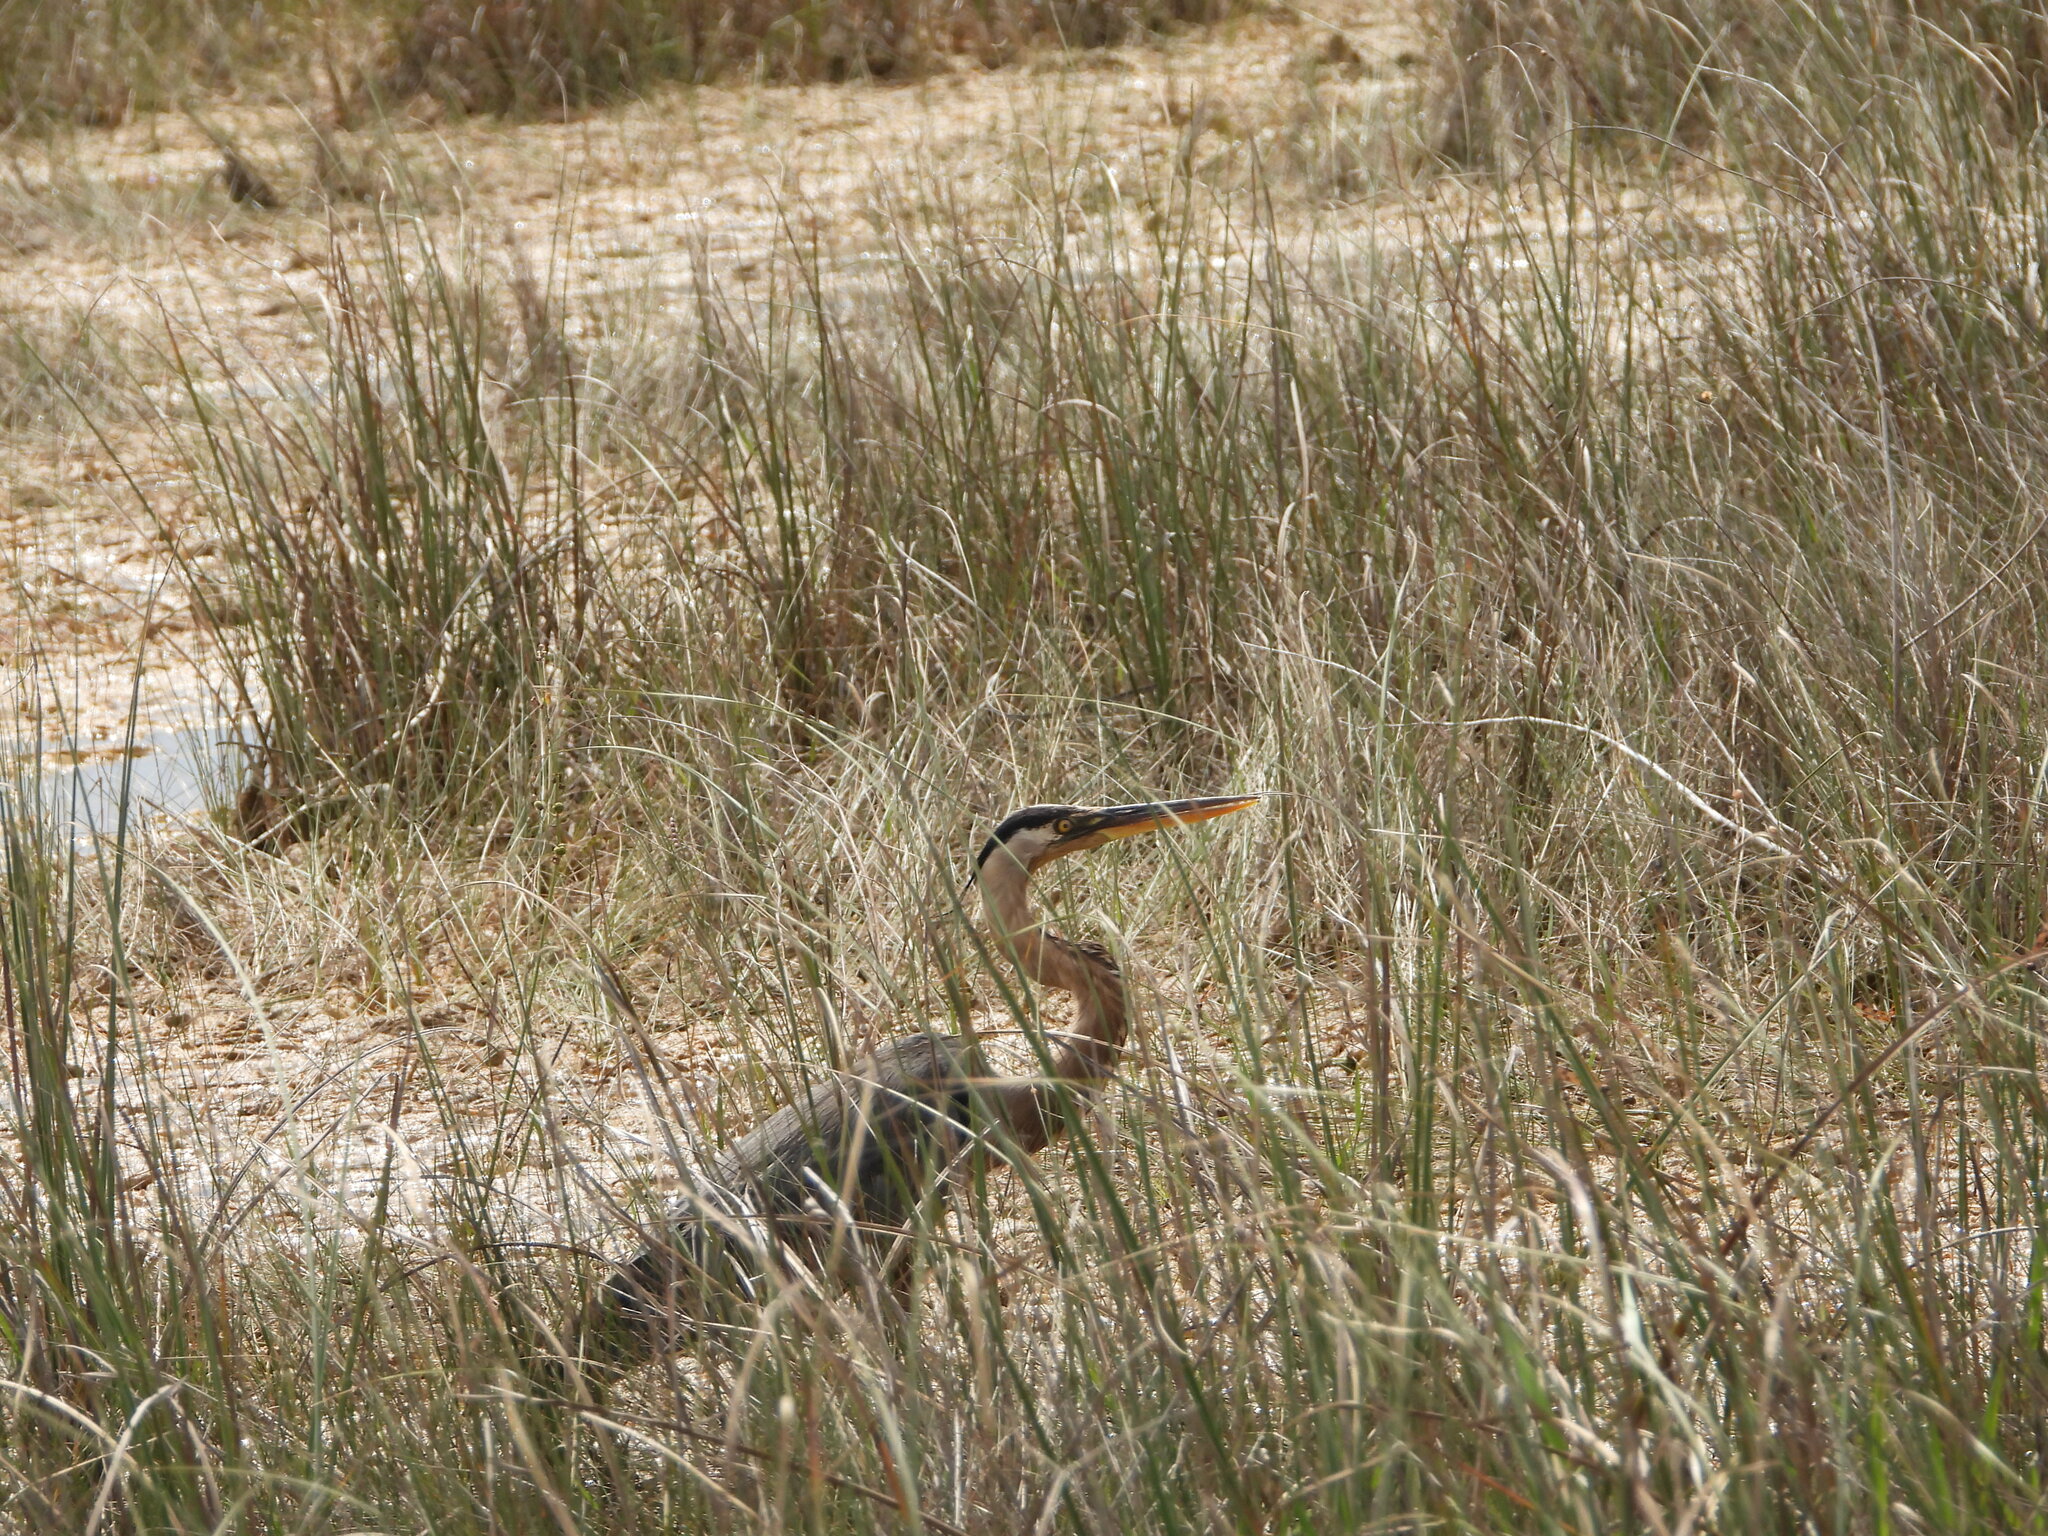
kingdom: Animalia
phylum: Chordata
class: Aves
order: Pelecaniformes
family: Ardeidae
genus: Ardea
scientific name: Ardea herodias
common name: Great blue heron
